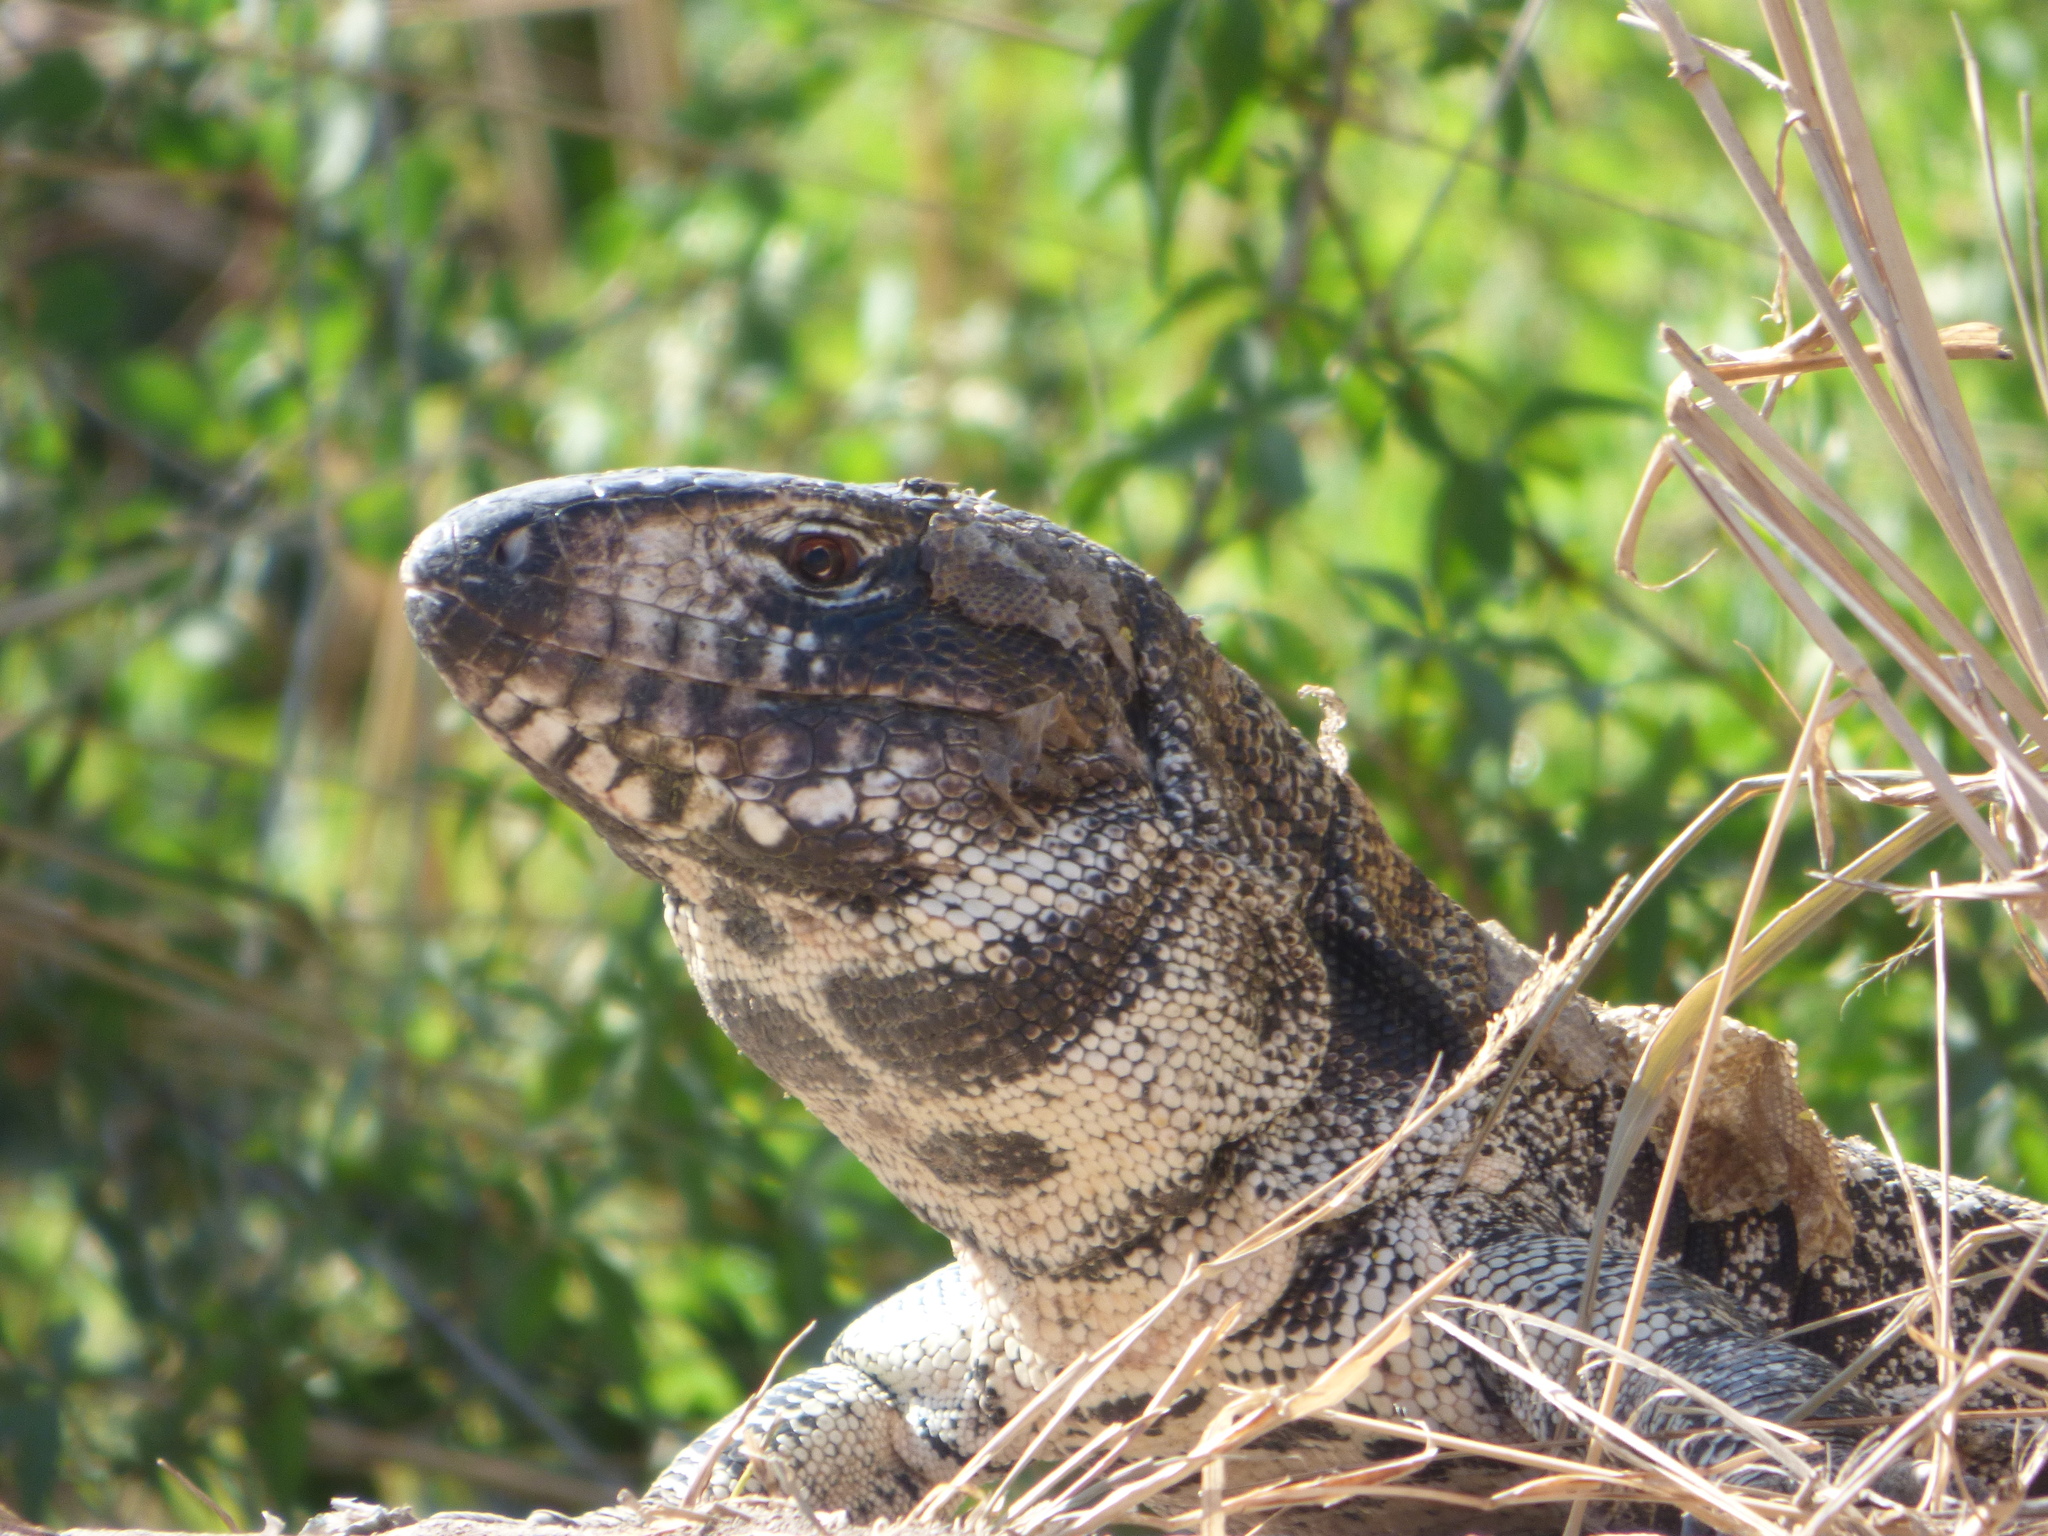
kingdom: Animalia
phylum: Chordata
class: Squamata
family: Teiidae
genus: Salvator
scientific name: Salvator merianae
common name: Argentine black and white tegu
